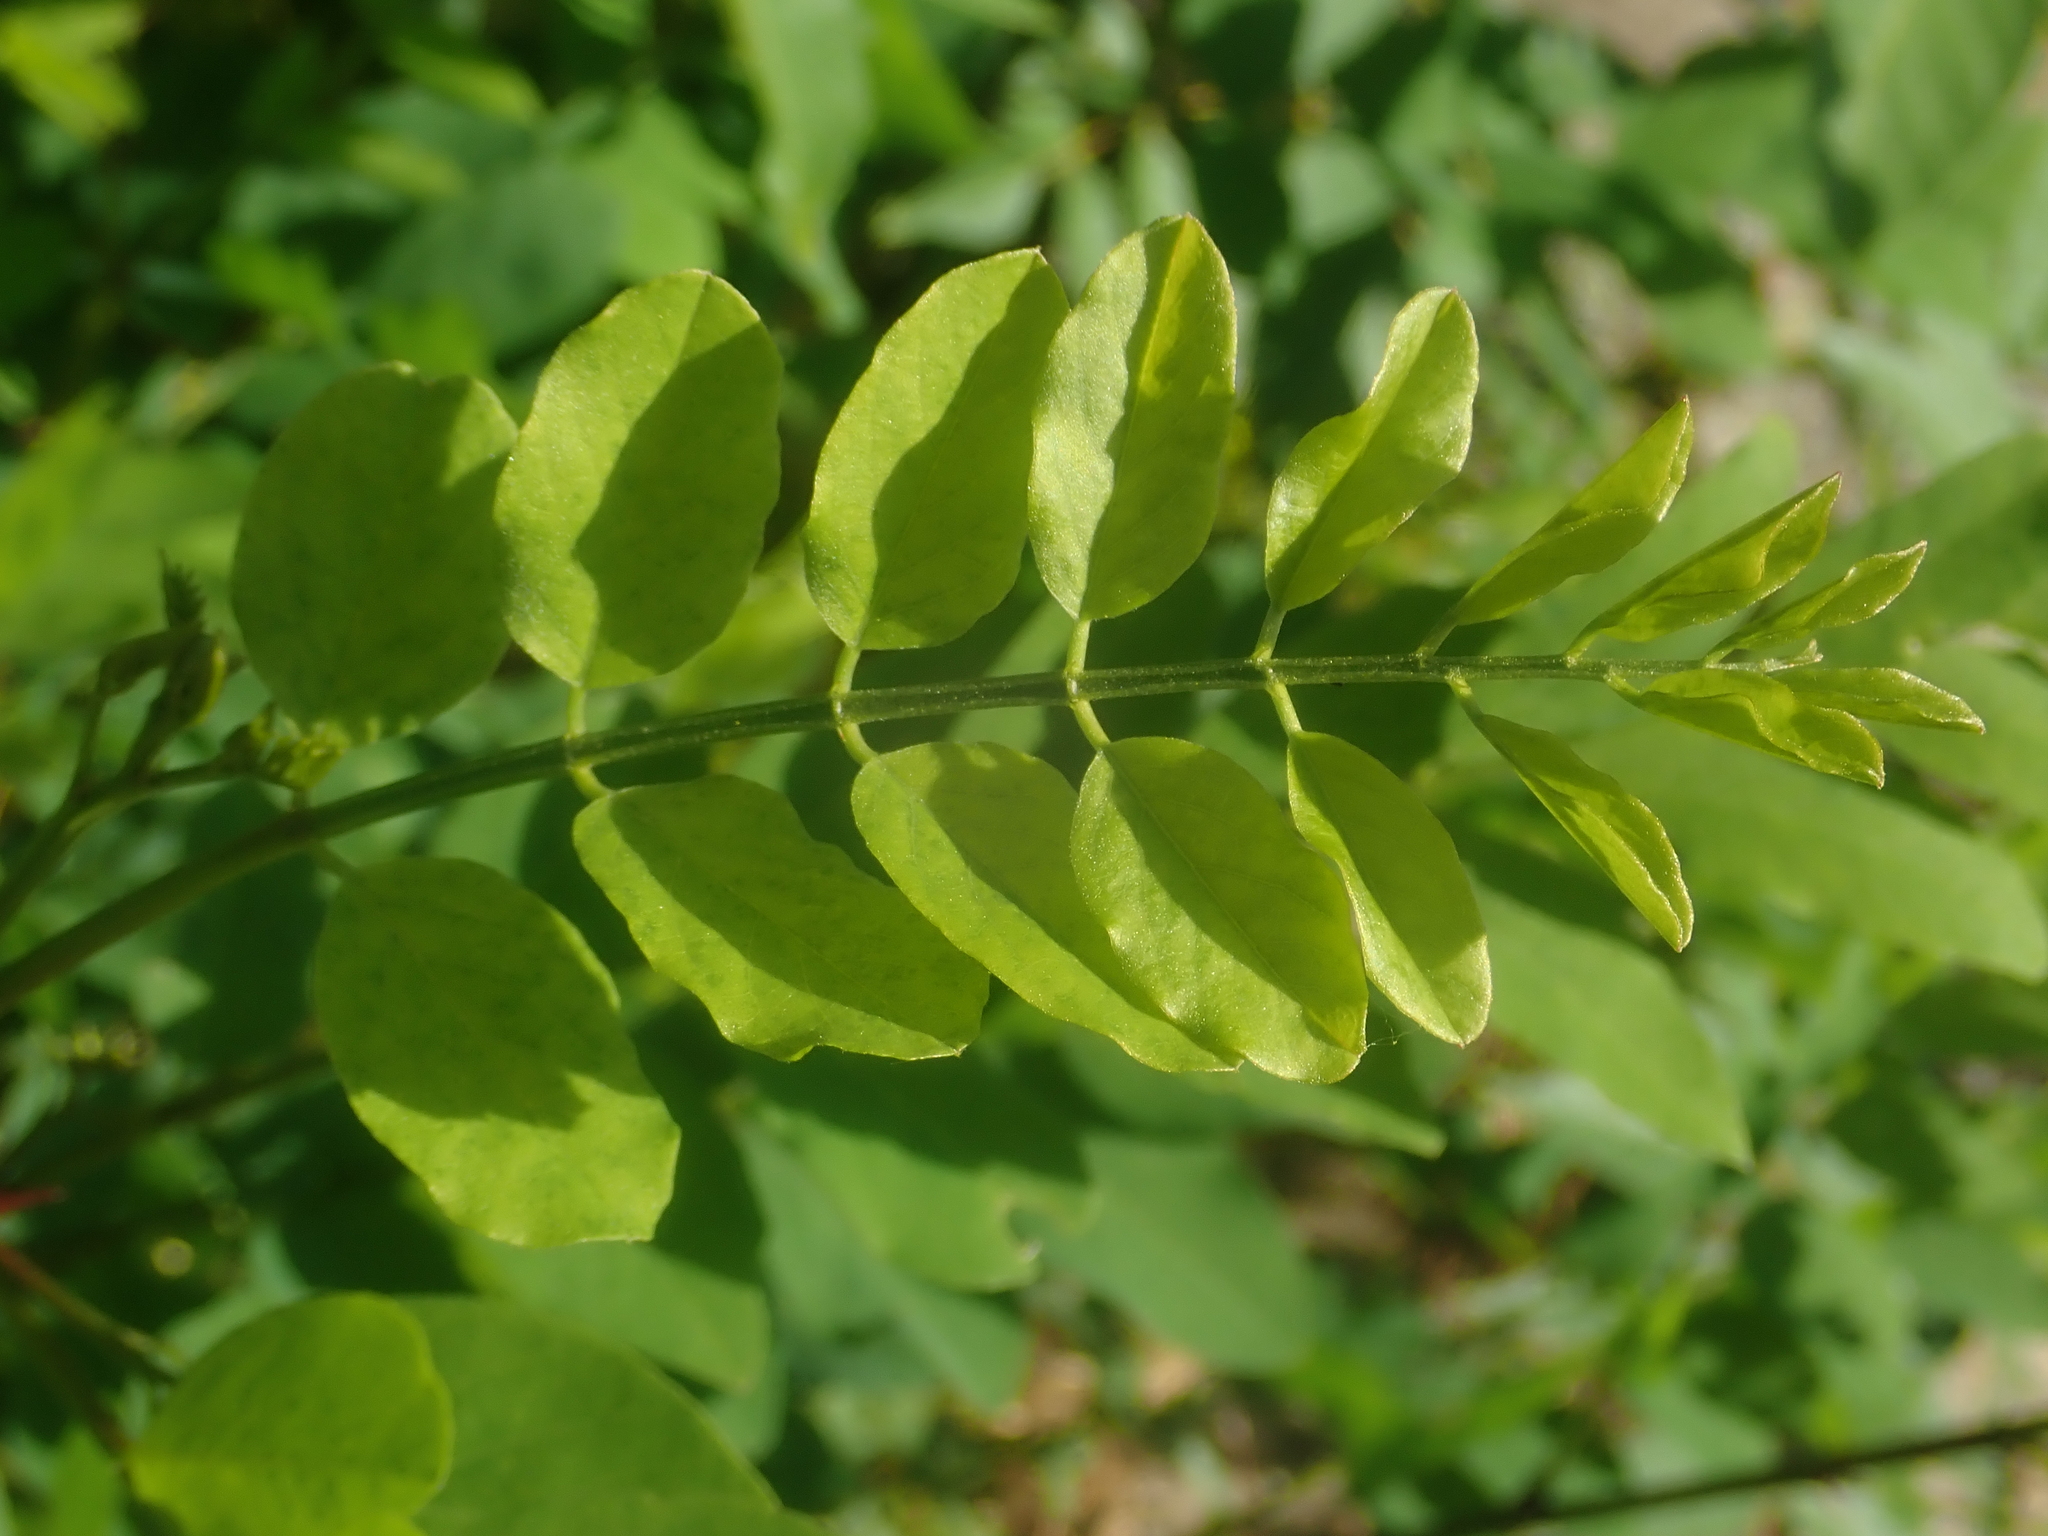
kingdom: Plantae
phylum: Tracheophyta
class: Magnoliopsida
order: Fabales
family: Fabaceae
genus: Robinia
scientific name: Robinia pseudoacacia
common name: Black locust
